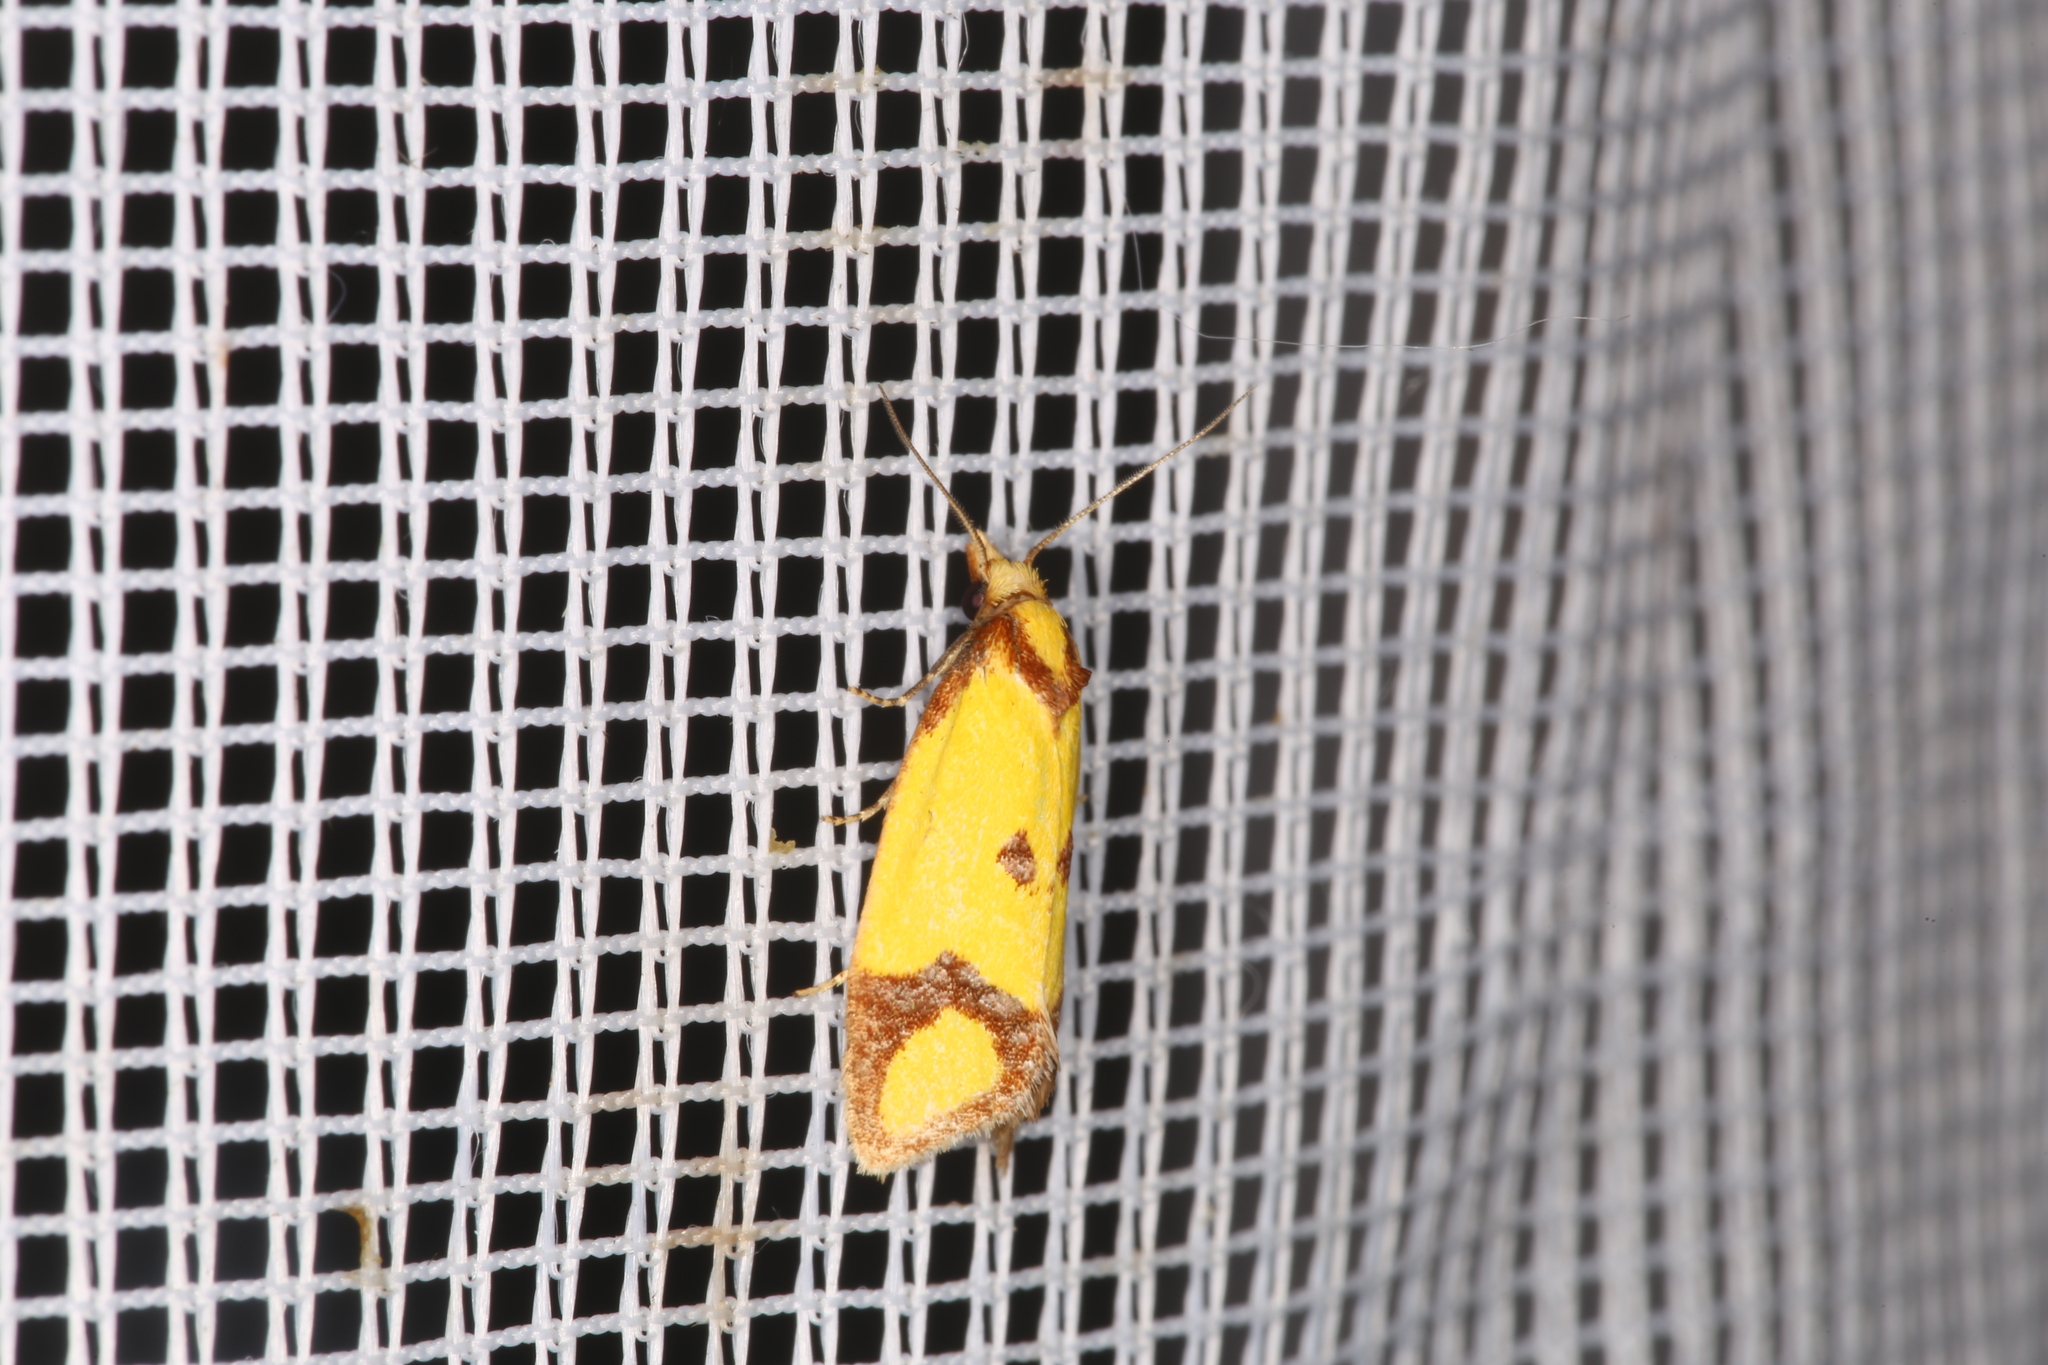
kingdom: Animalia
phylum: Arthropoda
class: Insecta
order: Lepidoptera
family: Tortricidae
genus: Agapeta
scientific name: Agapeta zoegana
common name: Sulfur knapweed root moth
